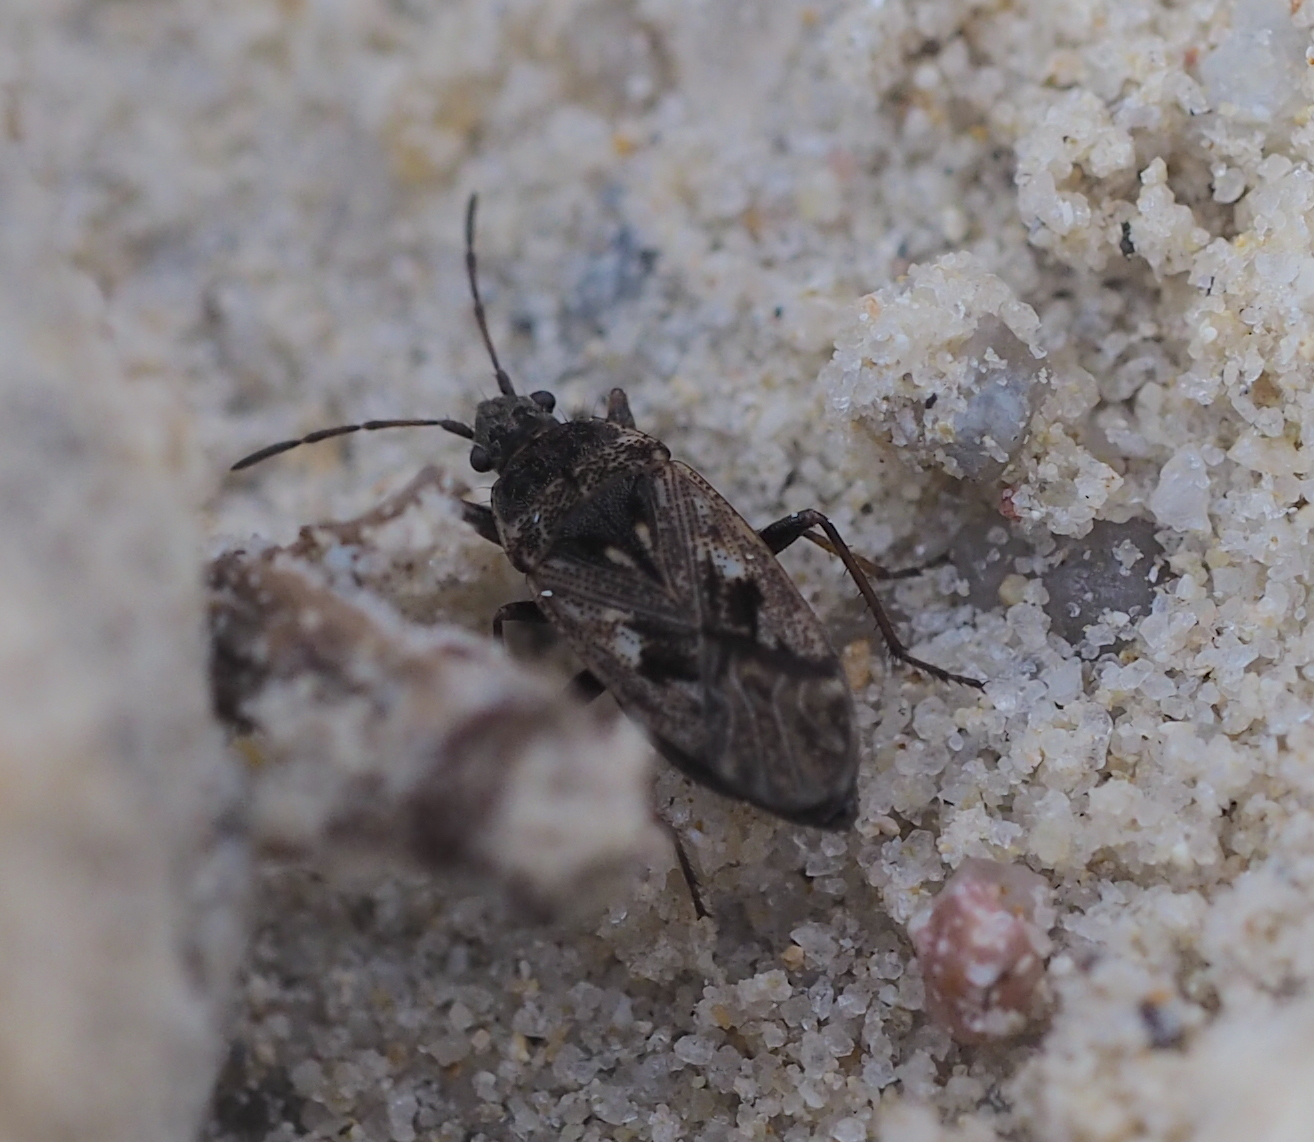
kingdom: Animalia
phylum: Arthropoda
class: Insecta
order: Hemiptera
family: Rhyparochromidae
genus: Sphragisticus
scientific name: Sphragisticus nebulosus
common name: Dirt-colored seed bug
